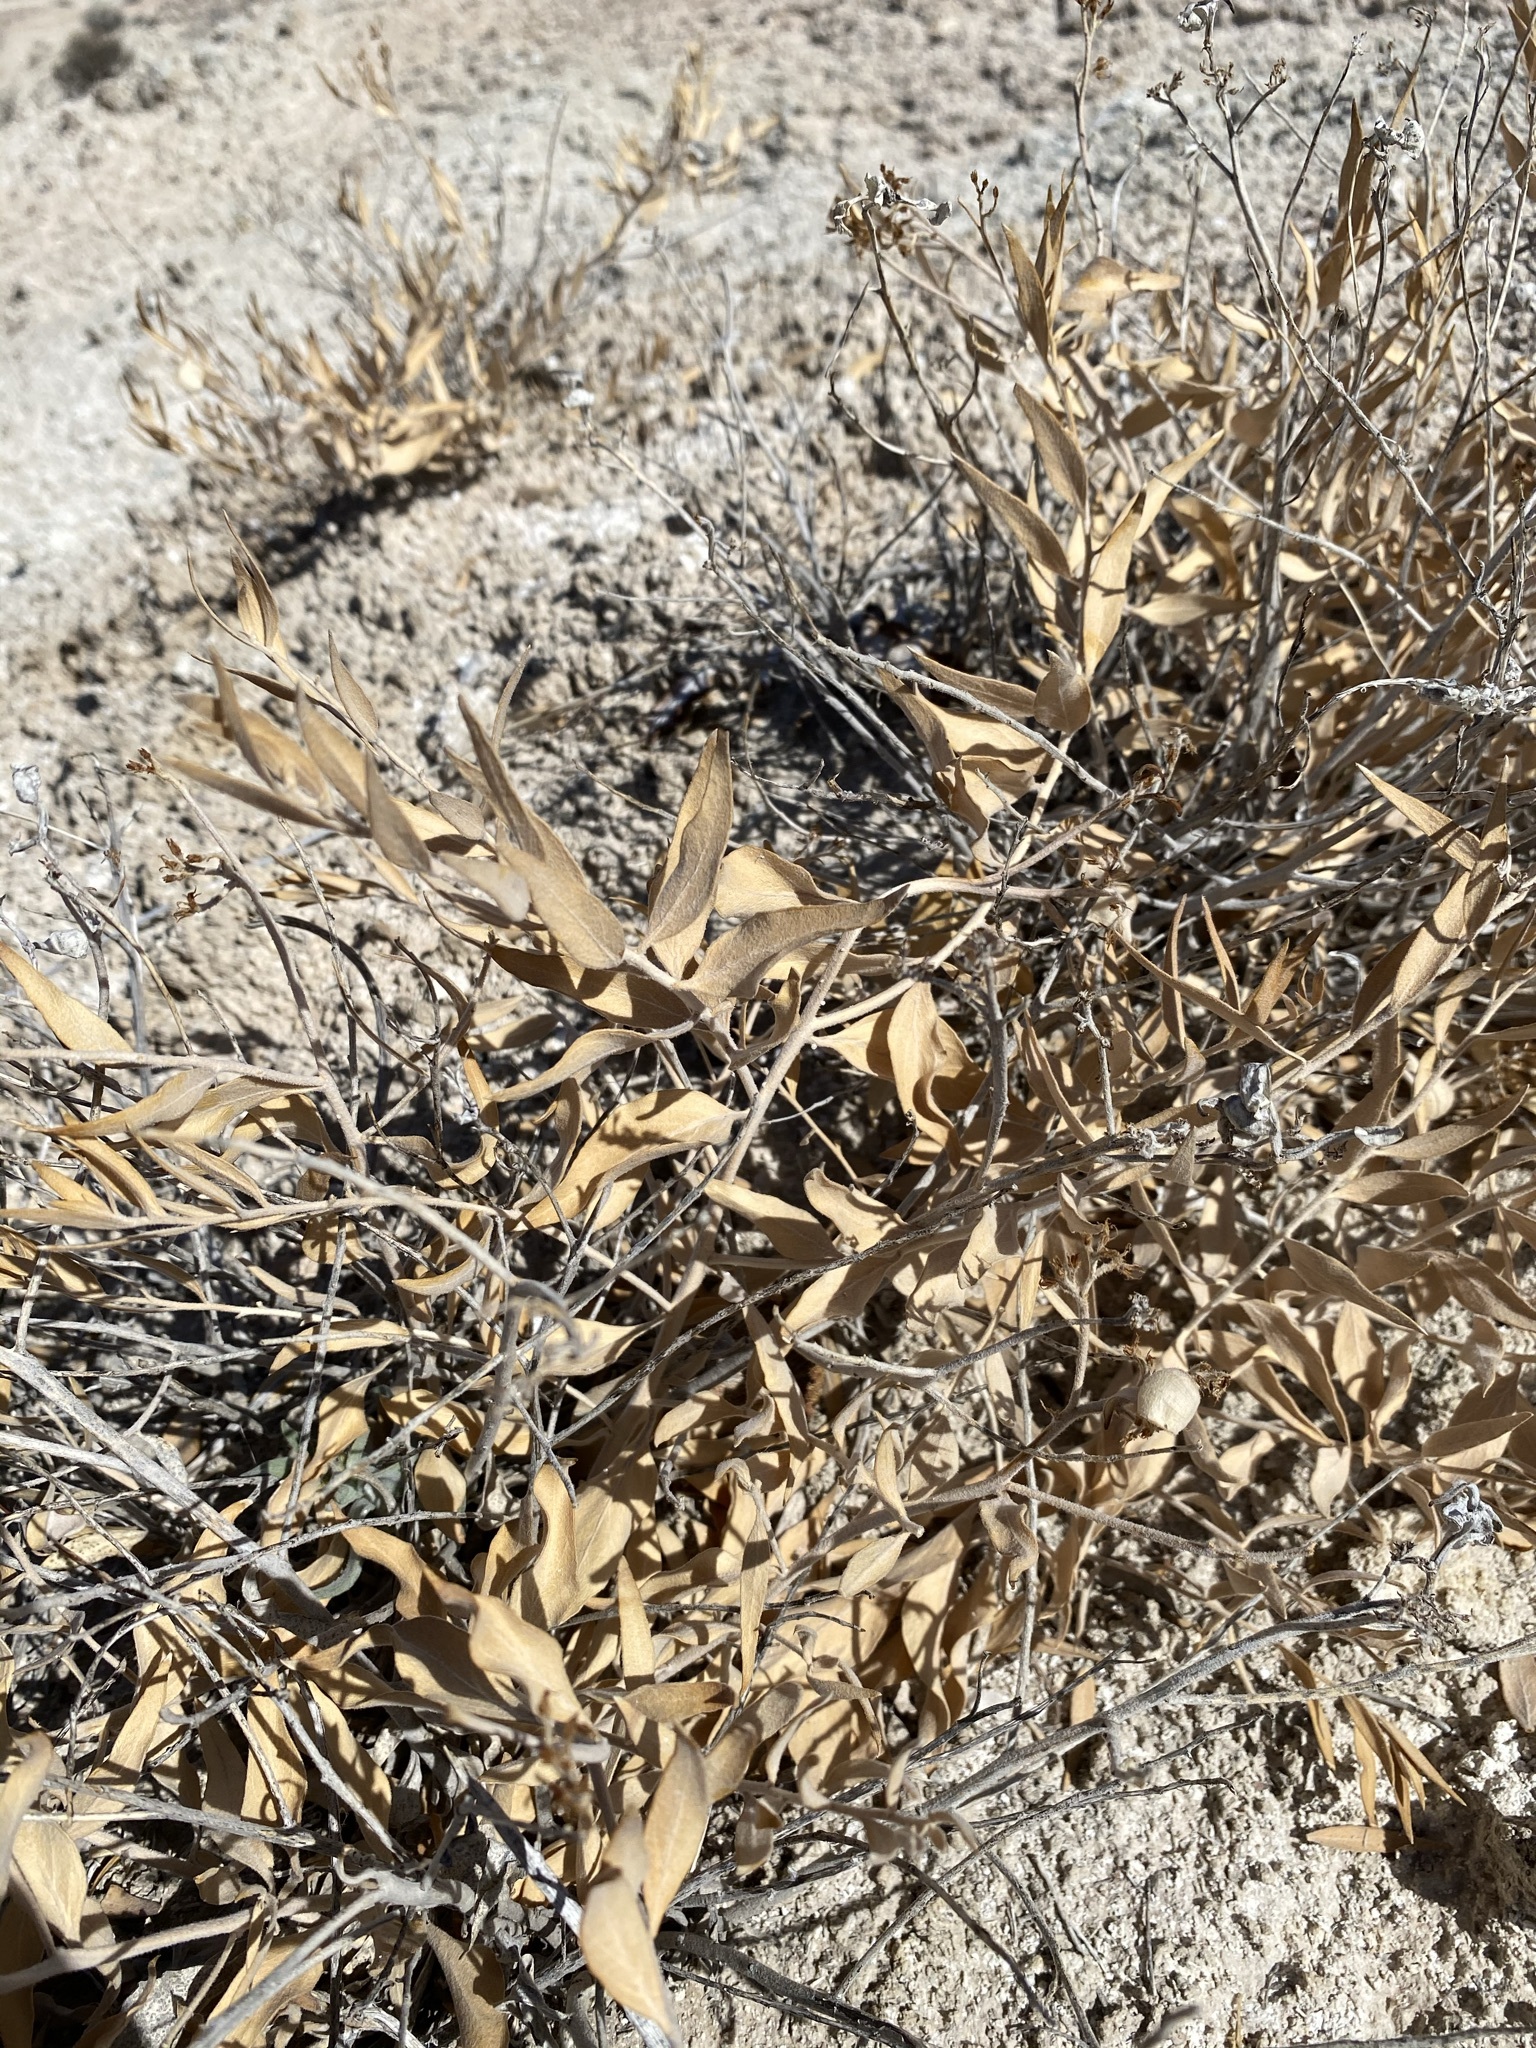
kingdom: Plantae
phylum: Tracheophyta
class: Magnoliopsida
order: Gentianales
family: Apocynaceae
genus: Amsonia
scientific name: Amsonia tomentosa
